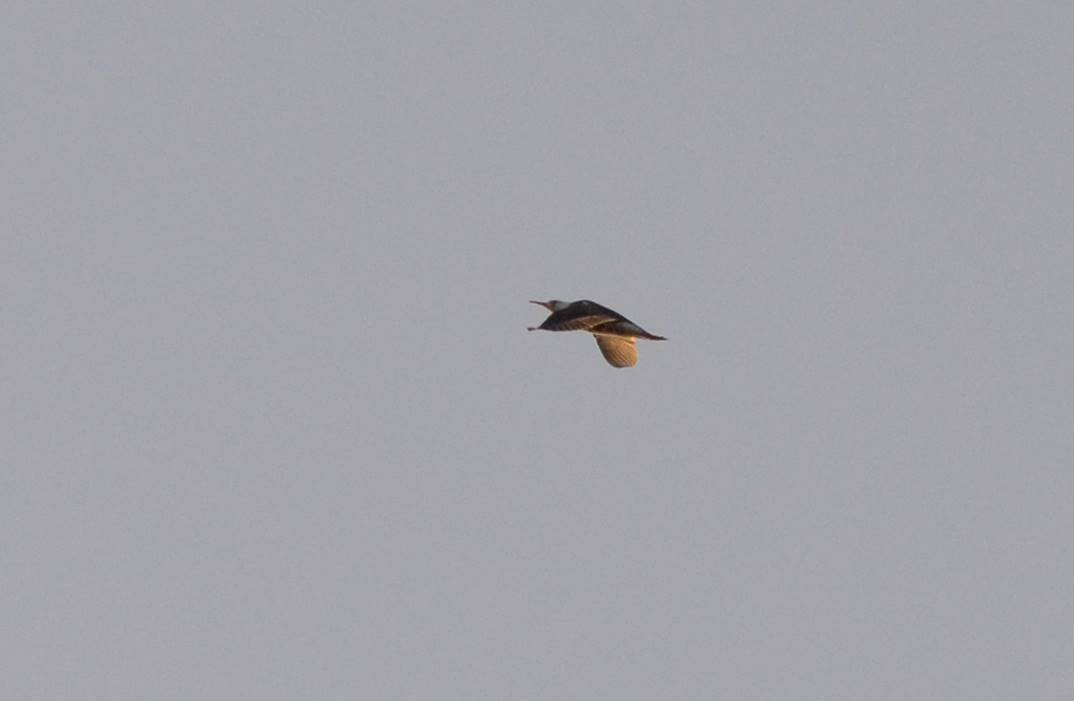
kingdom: Animalia
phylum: Chordata
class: Aves
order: Charadriiformes
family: Scolopacidae
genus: Calidris
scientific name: Calidris pugnax
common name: Ruff
